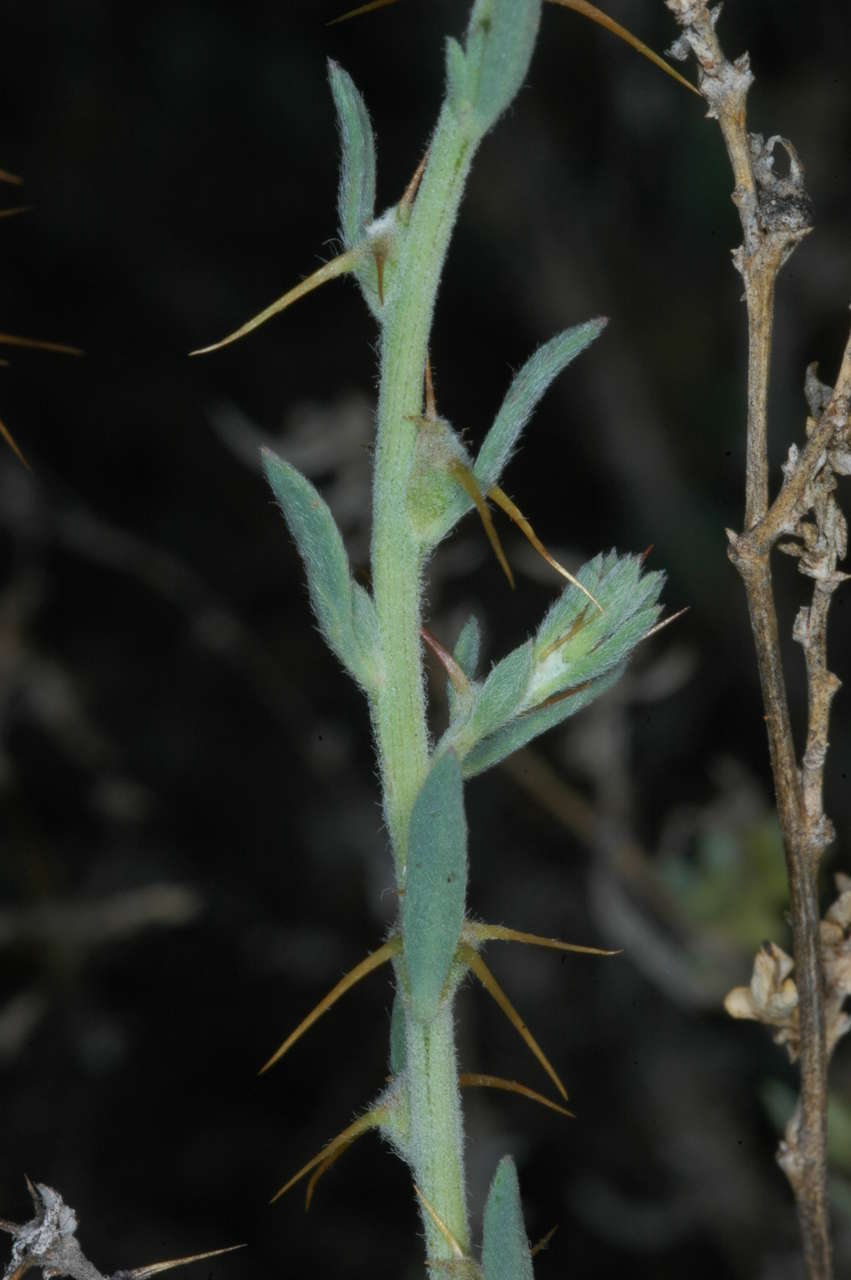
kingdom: Plantae
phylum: Tracheophyta
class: Magnoliopsida
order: Caryophyllales
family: Amaranthaceae
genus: Sclerolaena
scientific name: Sclerolaena muricata
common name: Roly-poly
